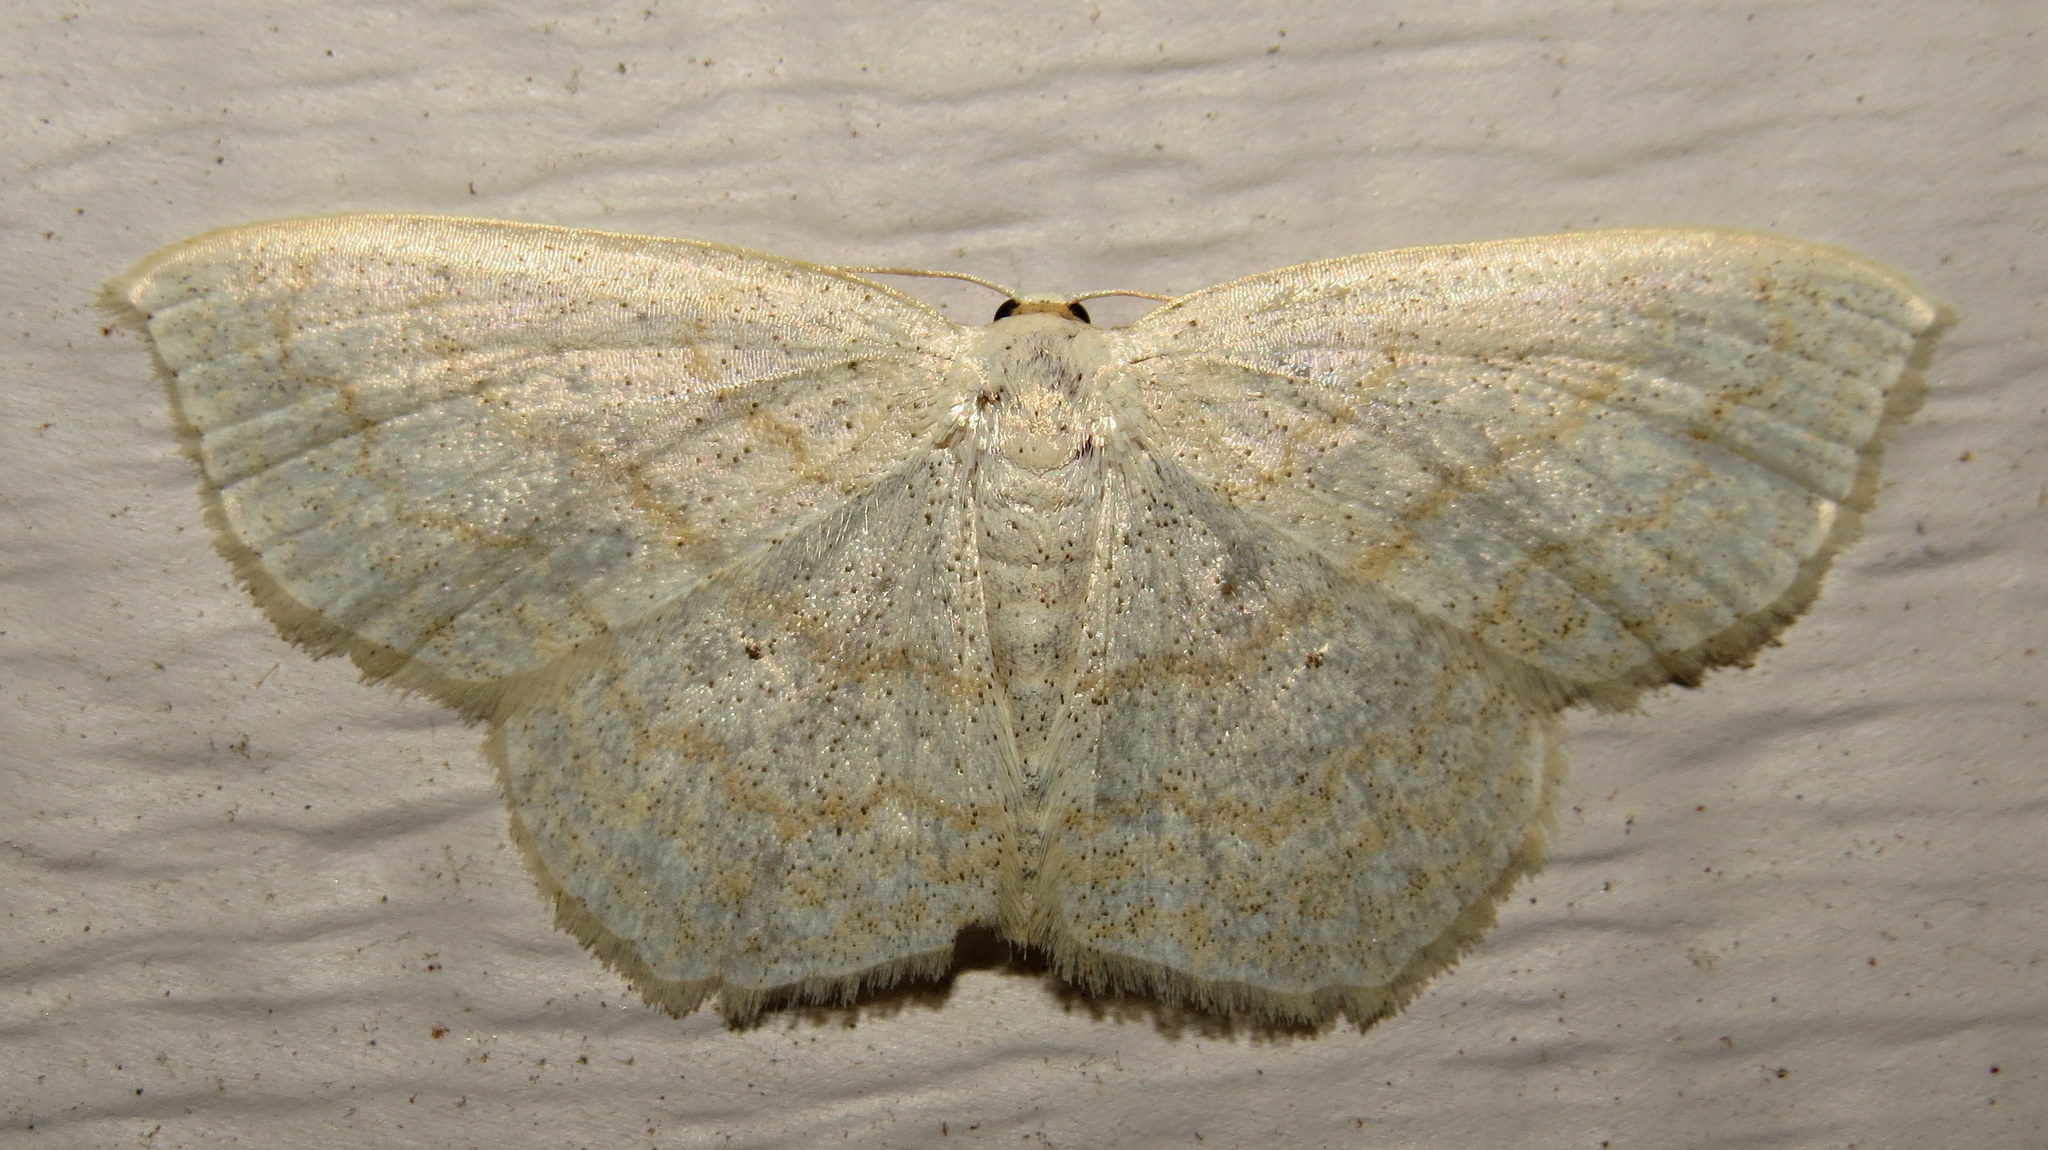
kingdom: Animalia
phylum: Arthropoda
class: Insecta
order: Lepidoptera
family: Geometridae
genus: Scopula
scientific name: Scopula limboundata
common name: Large lace border
